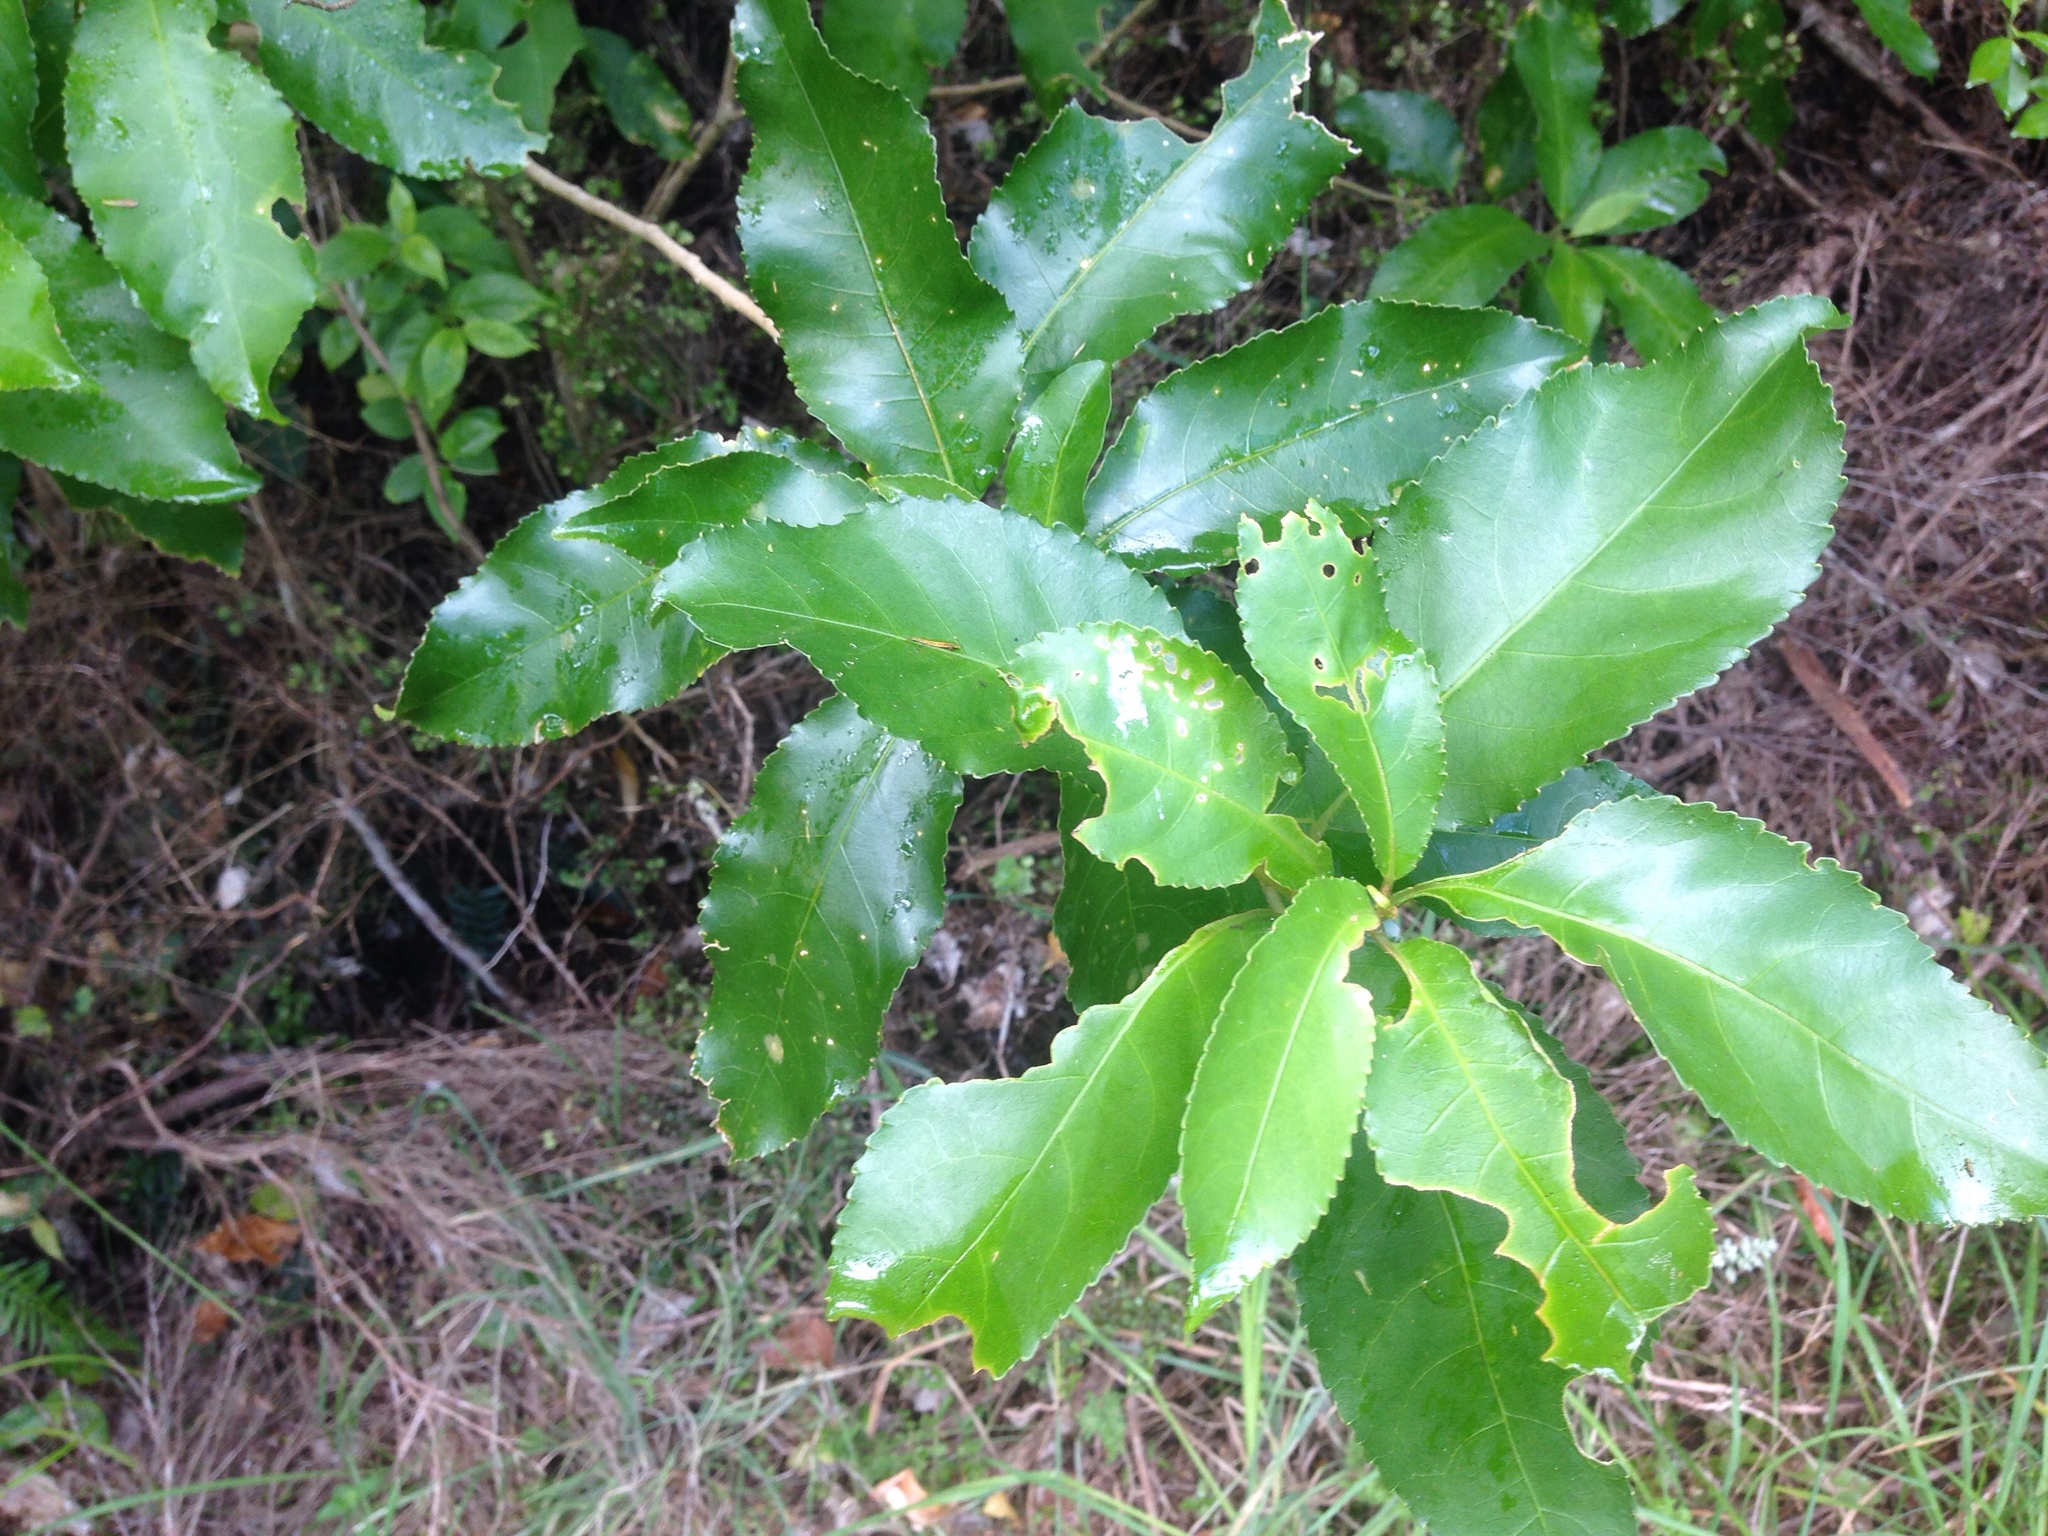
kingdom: Plantae
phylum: Tracheophyta
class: Magnoliopsida
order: Malpighiales
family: Violaceae
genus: Melicytus
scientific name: Melicytus ramiflorus
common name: Mahoe
